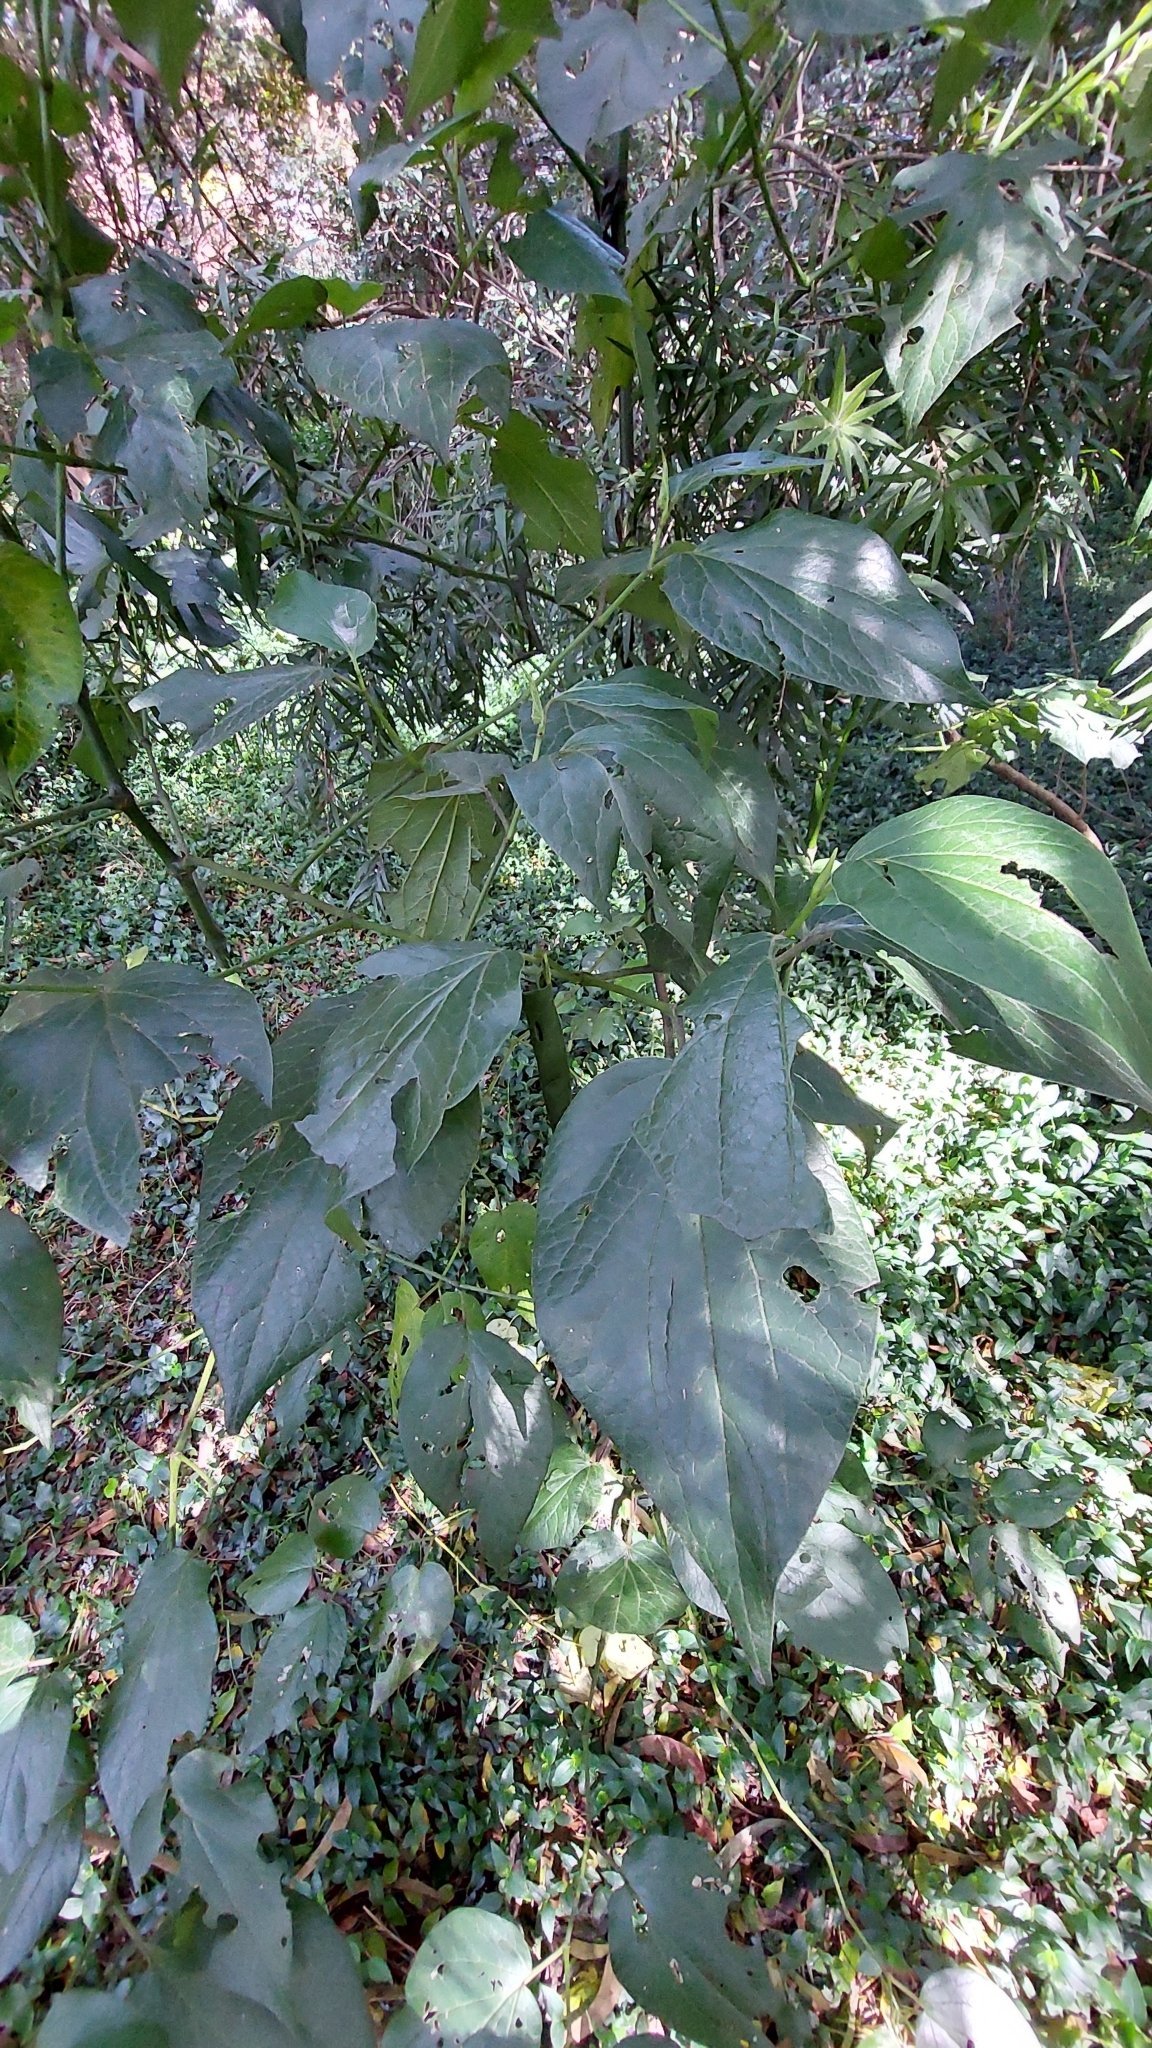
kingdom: Plantae
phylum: Tracheophyta
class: Magnoliopsida
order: Piperales
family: Piperaceae
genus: Piper
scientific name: Piper barbatum
